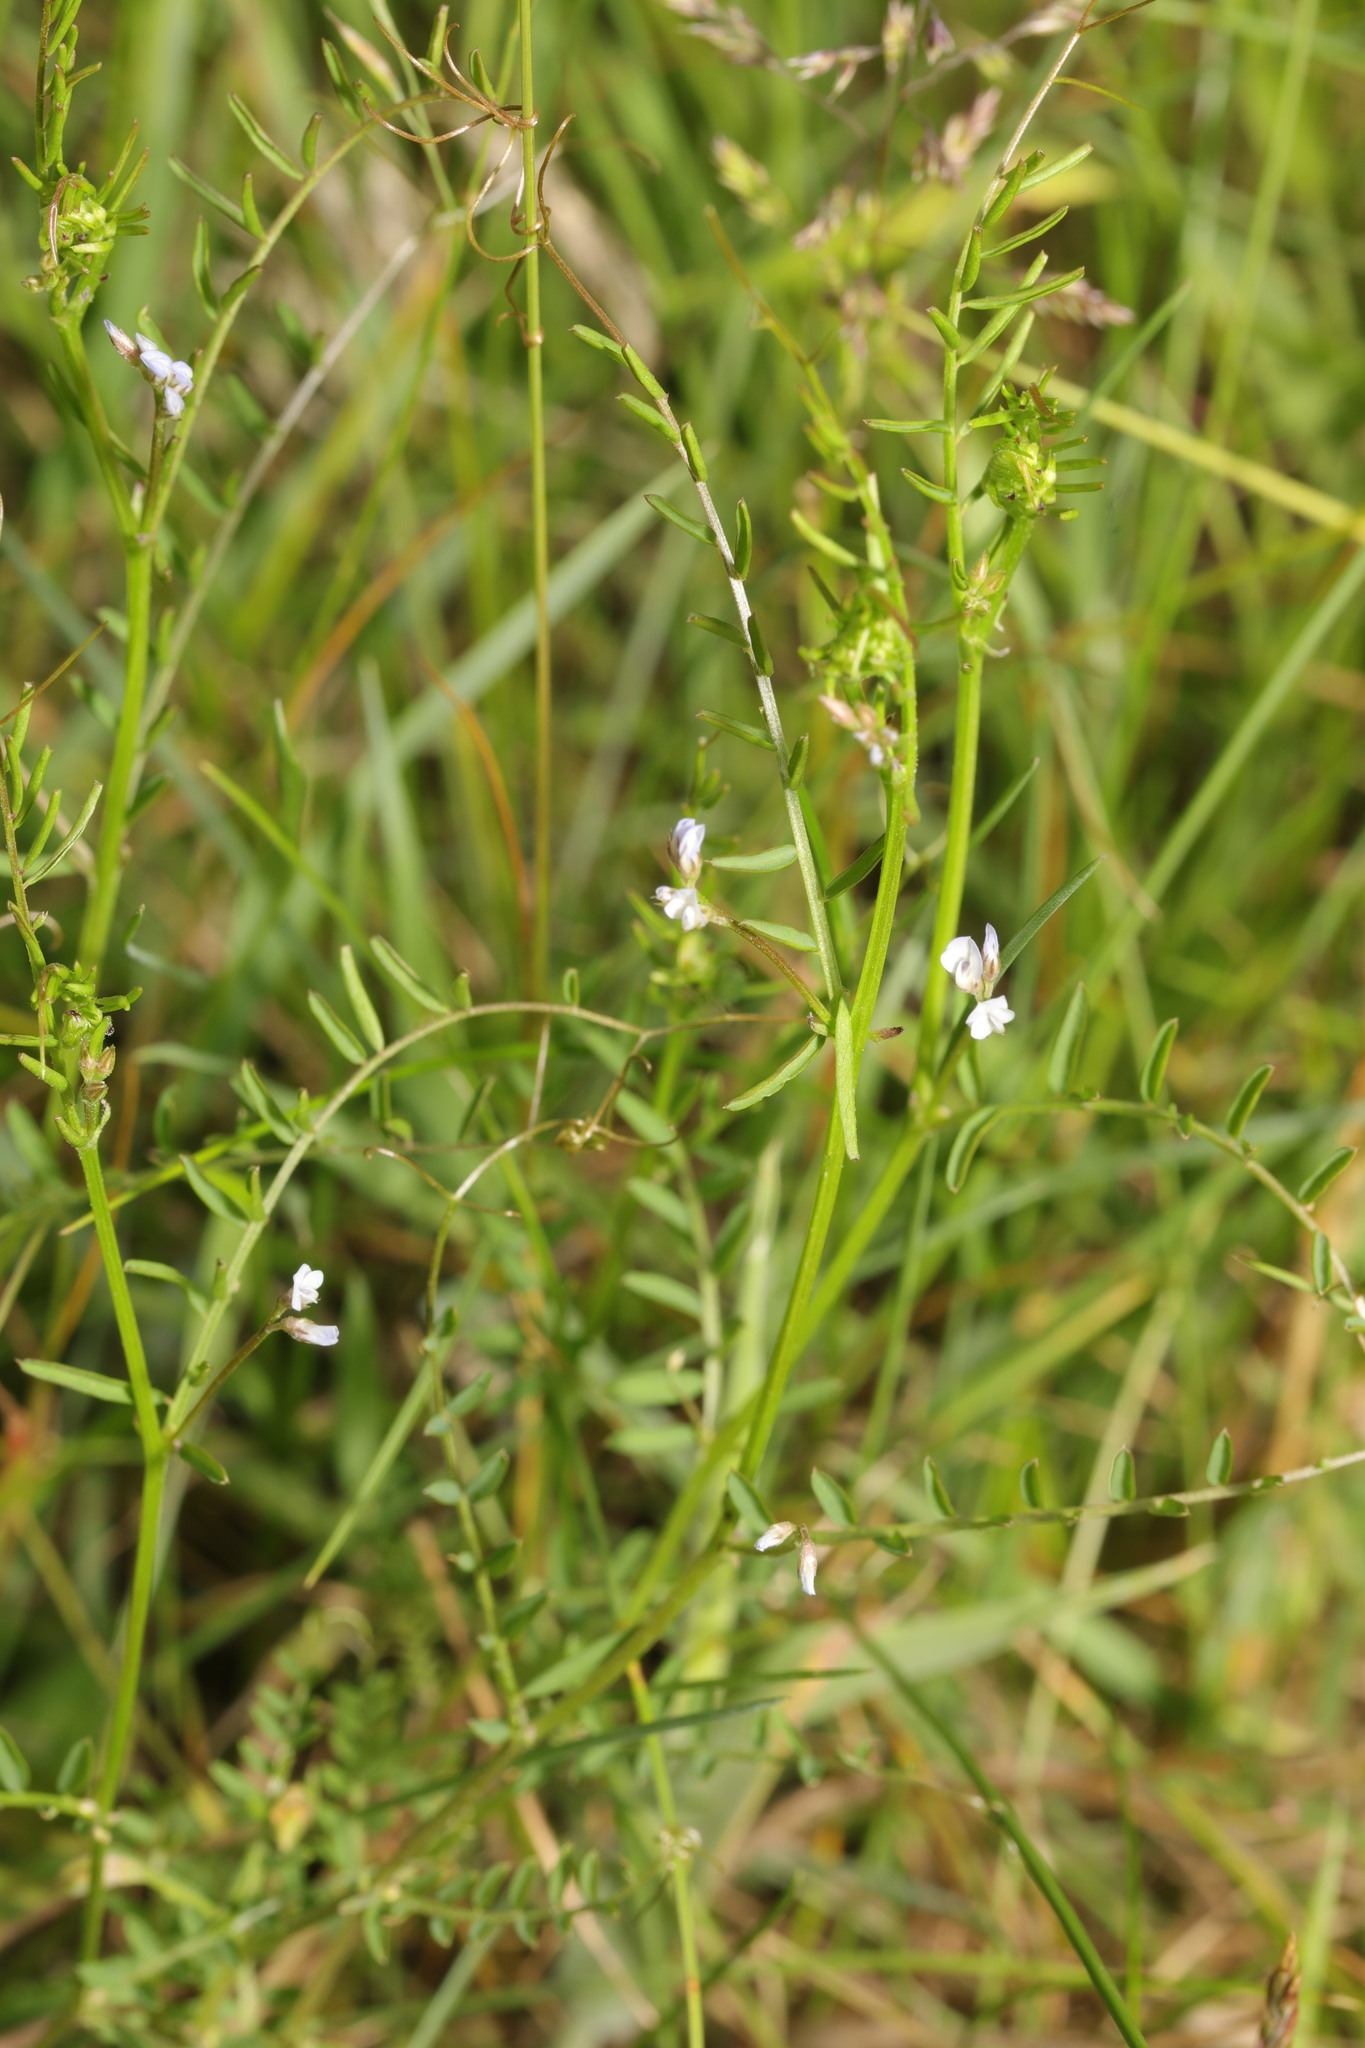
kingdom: Plantae
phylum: Tracheophyta
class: Magnoliopsida
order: Fabales
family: Fabaceae
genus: Vicia
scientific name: Vicia hirsuta
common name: Tiny vetch
